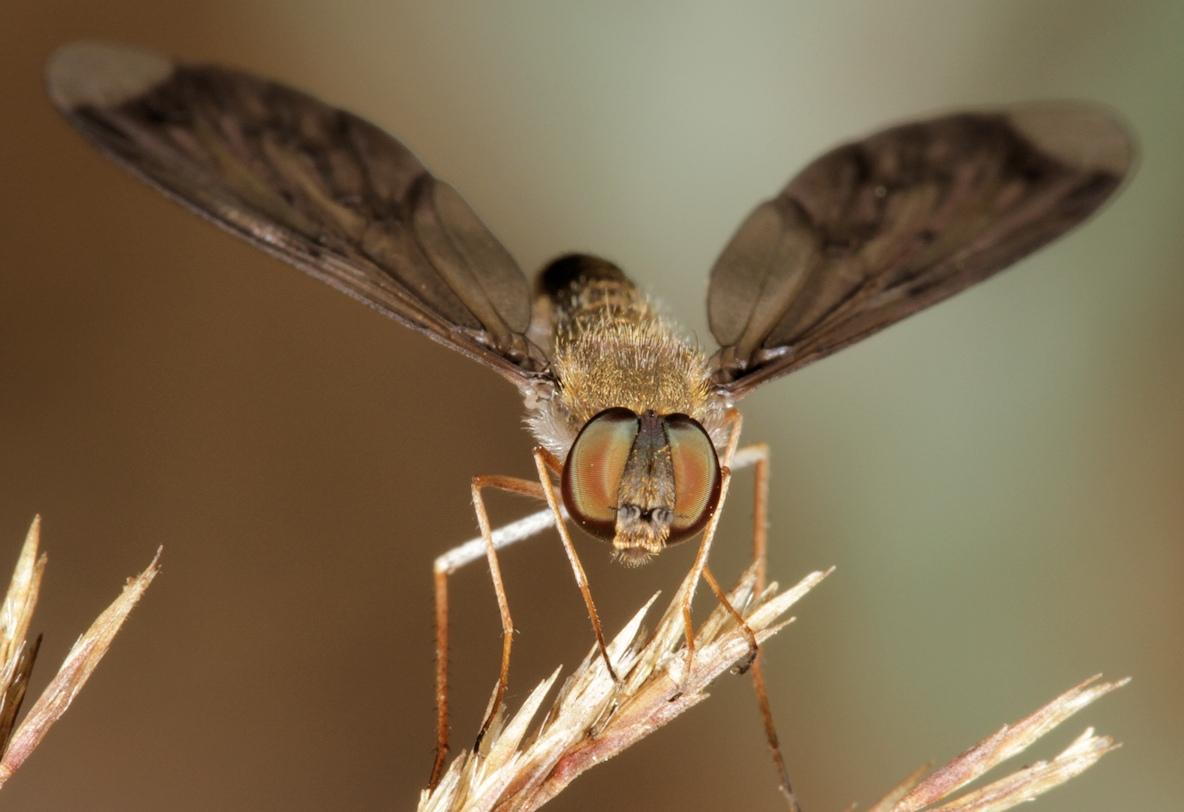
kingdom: Animalia
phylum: Arthropoda
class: Insecta
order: Diptera
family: Bombyliidae
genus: Petrorossia
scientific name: Petrorossia plerophaia
